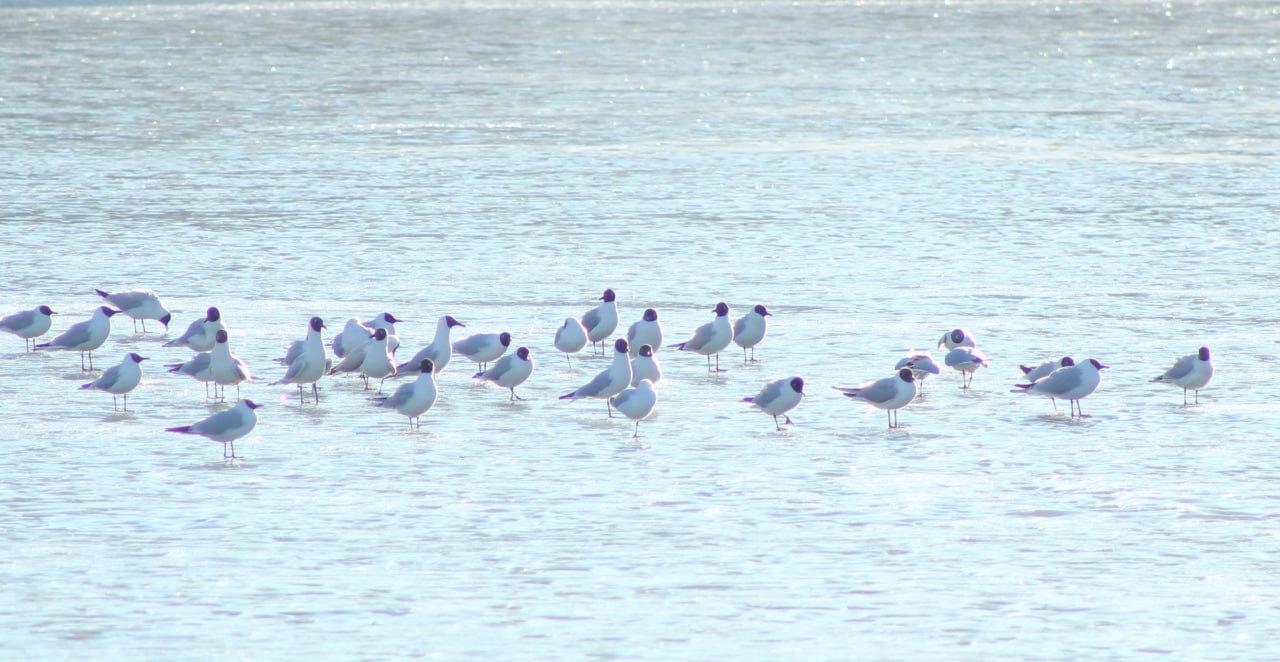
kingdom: Animalia
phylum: Chordata
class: Aves
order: Charadriiformes
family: Laridae
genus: Chroicocephalus
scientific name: Chroicocephalus ridibundus
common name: Black-headed gull
